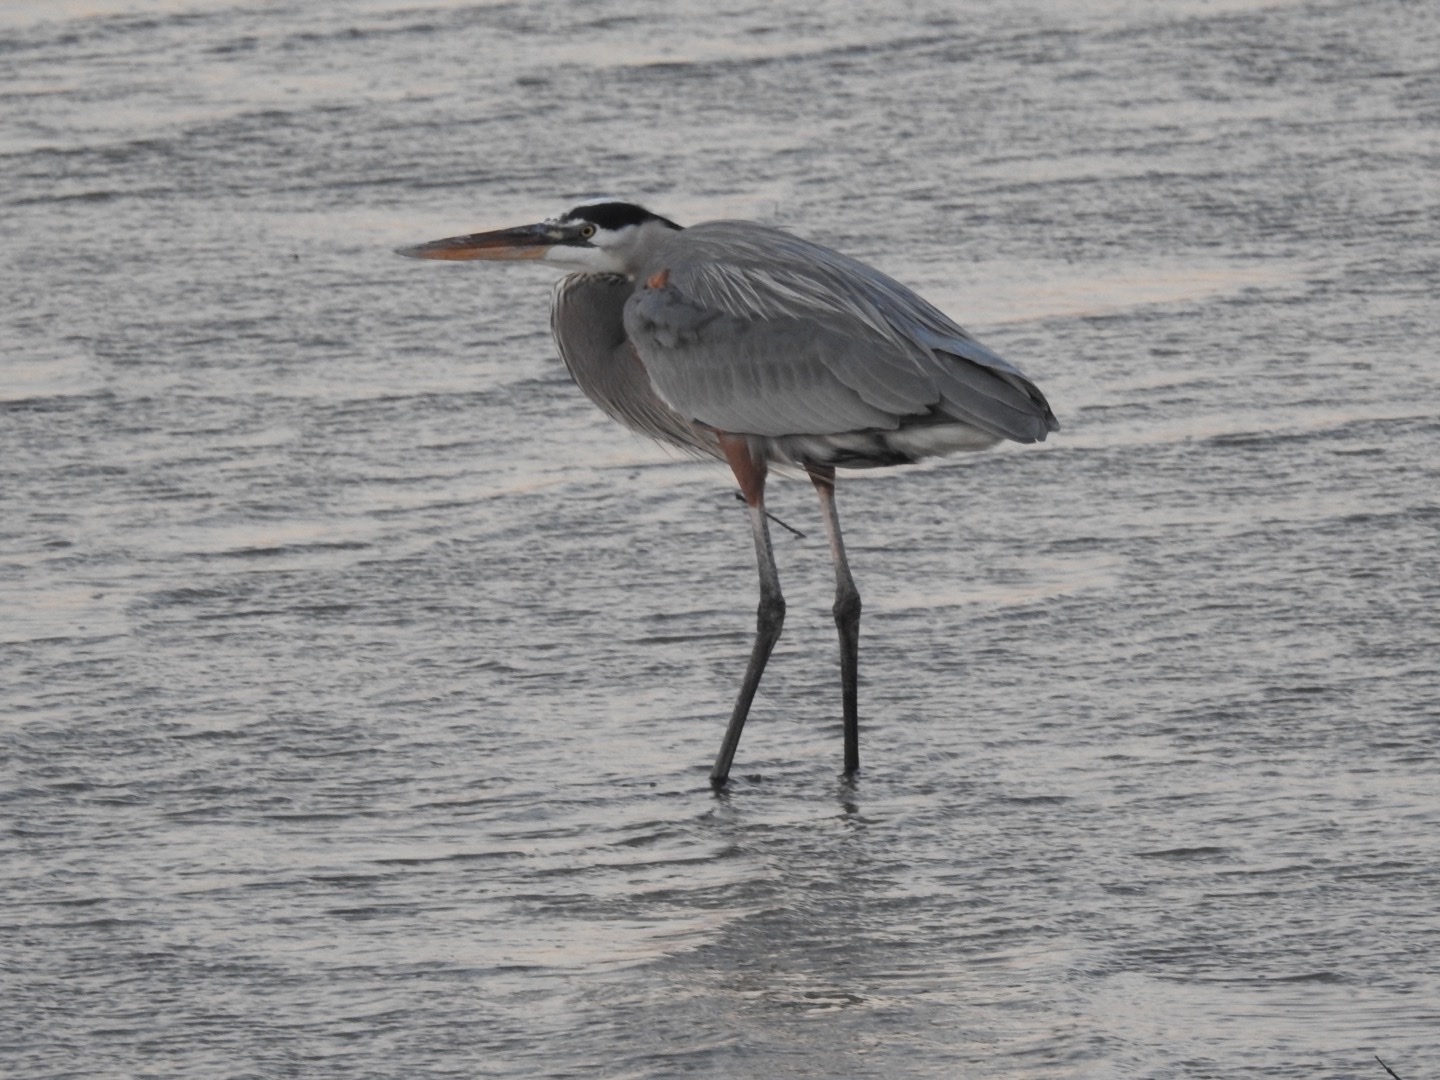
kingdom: Animalia
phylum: Chordata
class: Aves
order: Pelecaniformes
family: Ardeidae
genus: Ardea
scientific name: Ardea herodias
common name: Great blue heron
